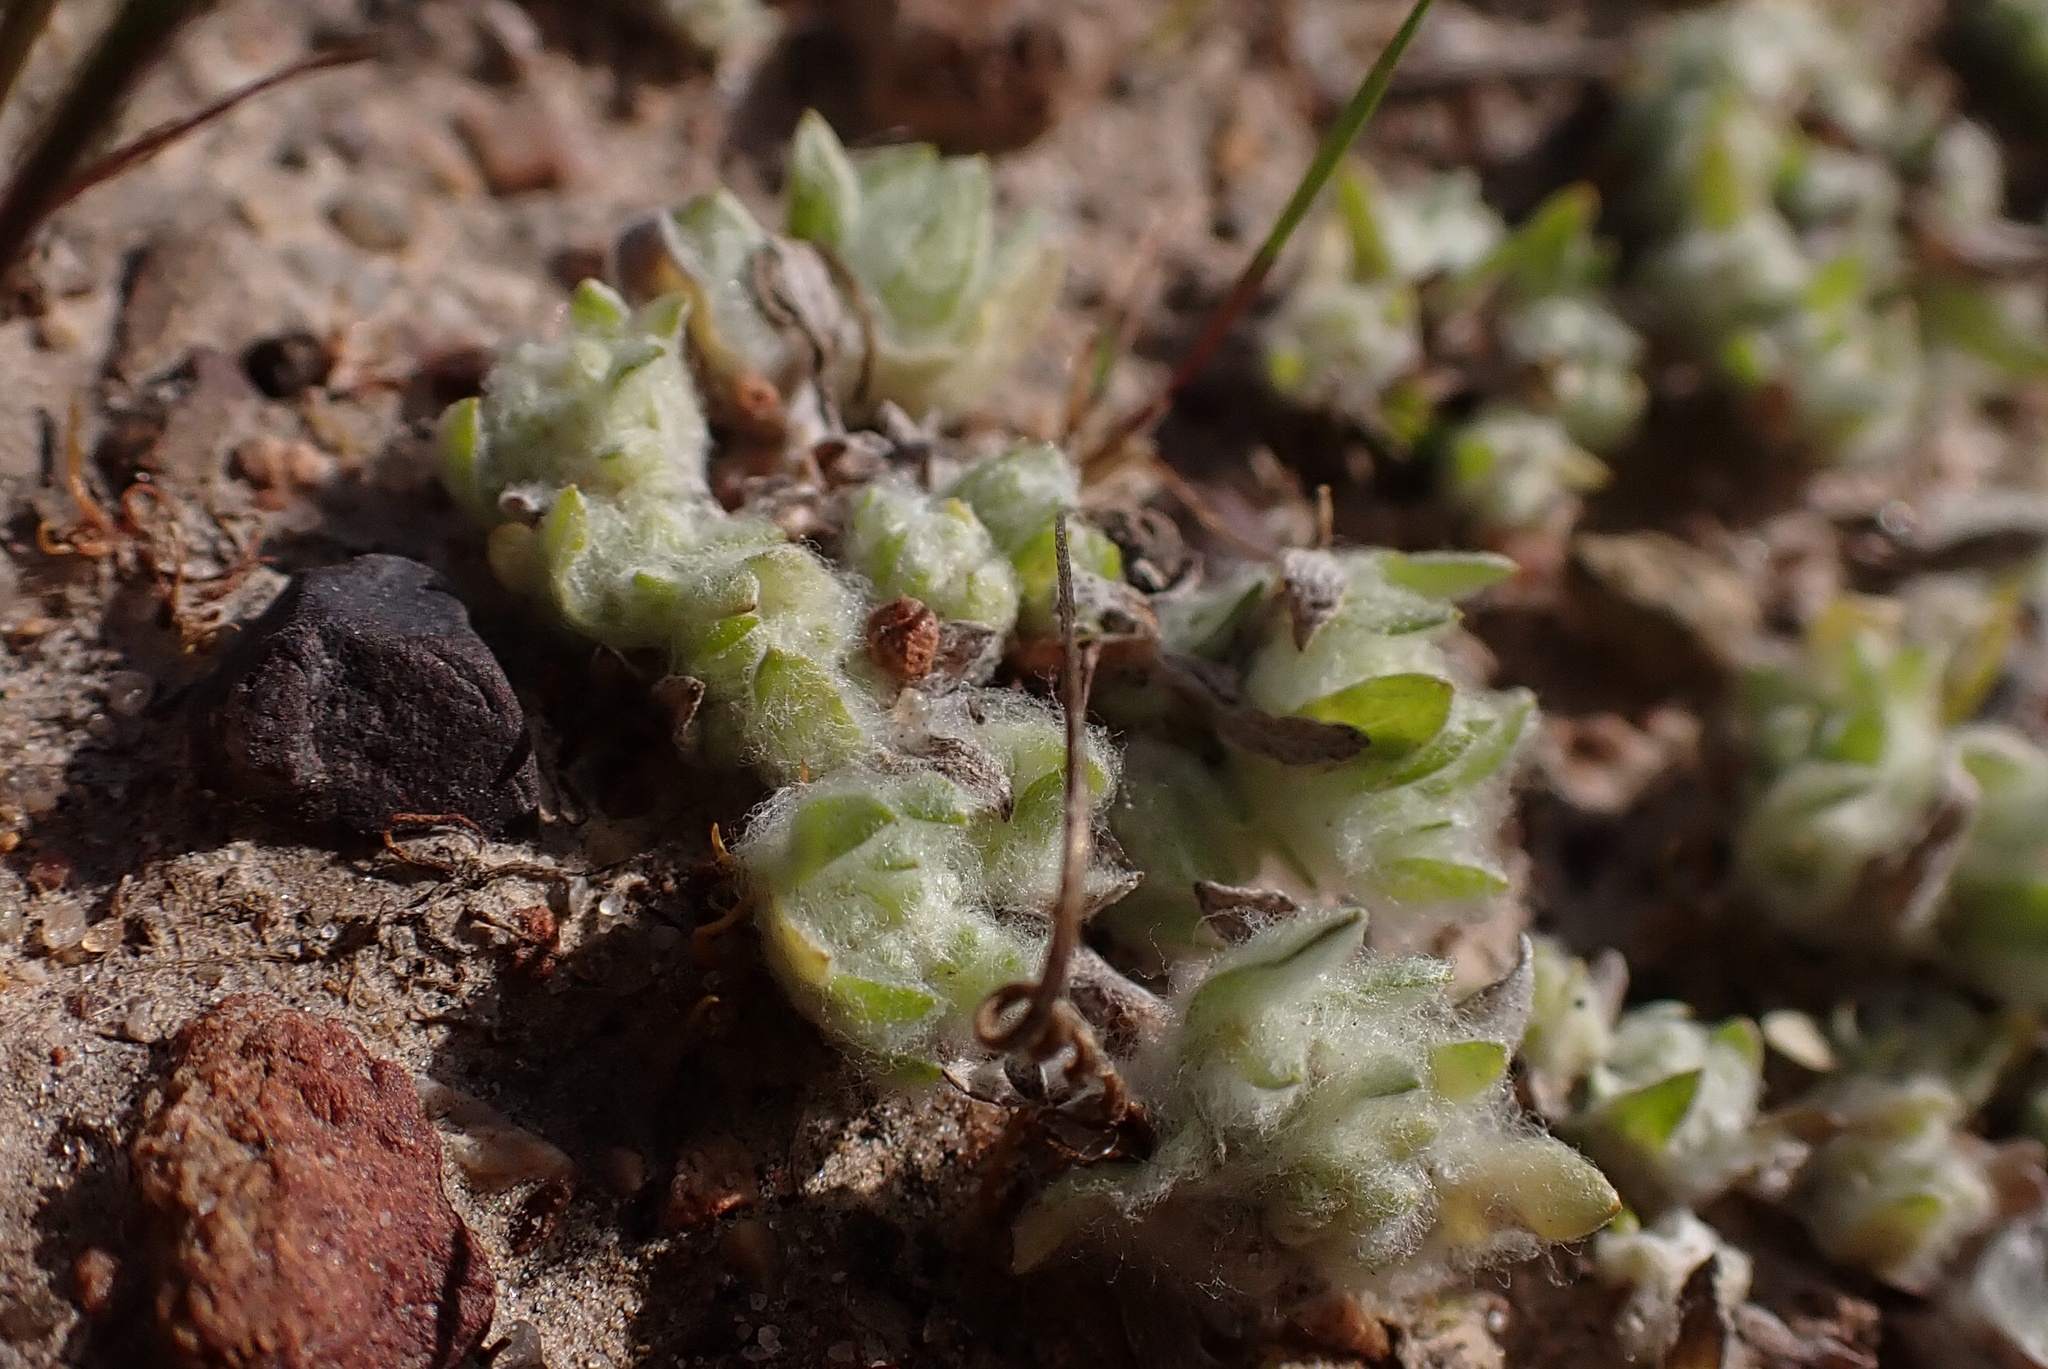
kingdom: Plantae
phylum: Tracheophyta
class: Magnoliopsida
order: Asterales
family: Asteraceae
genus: Psilocarphus
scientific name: Psilocarphus brevissimus
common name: Dwarf woollyheads
